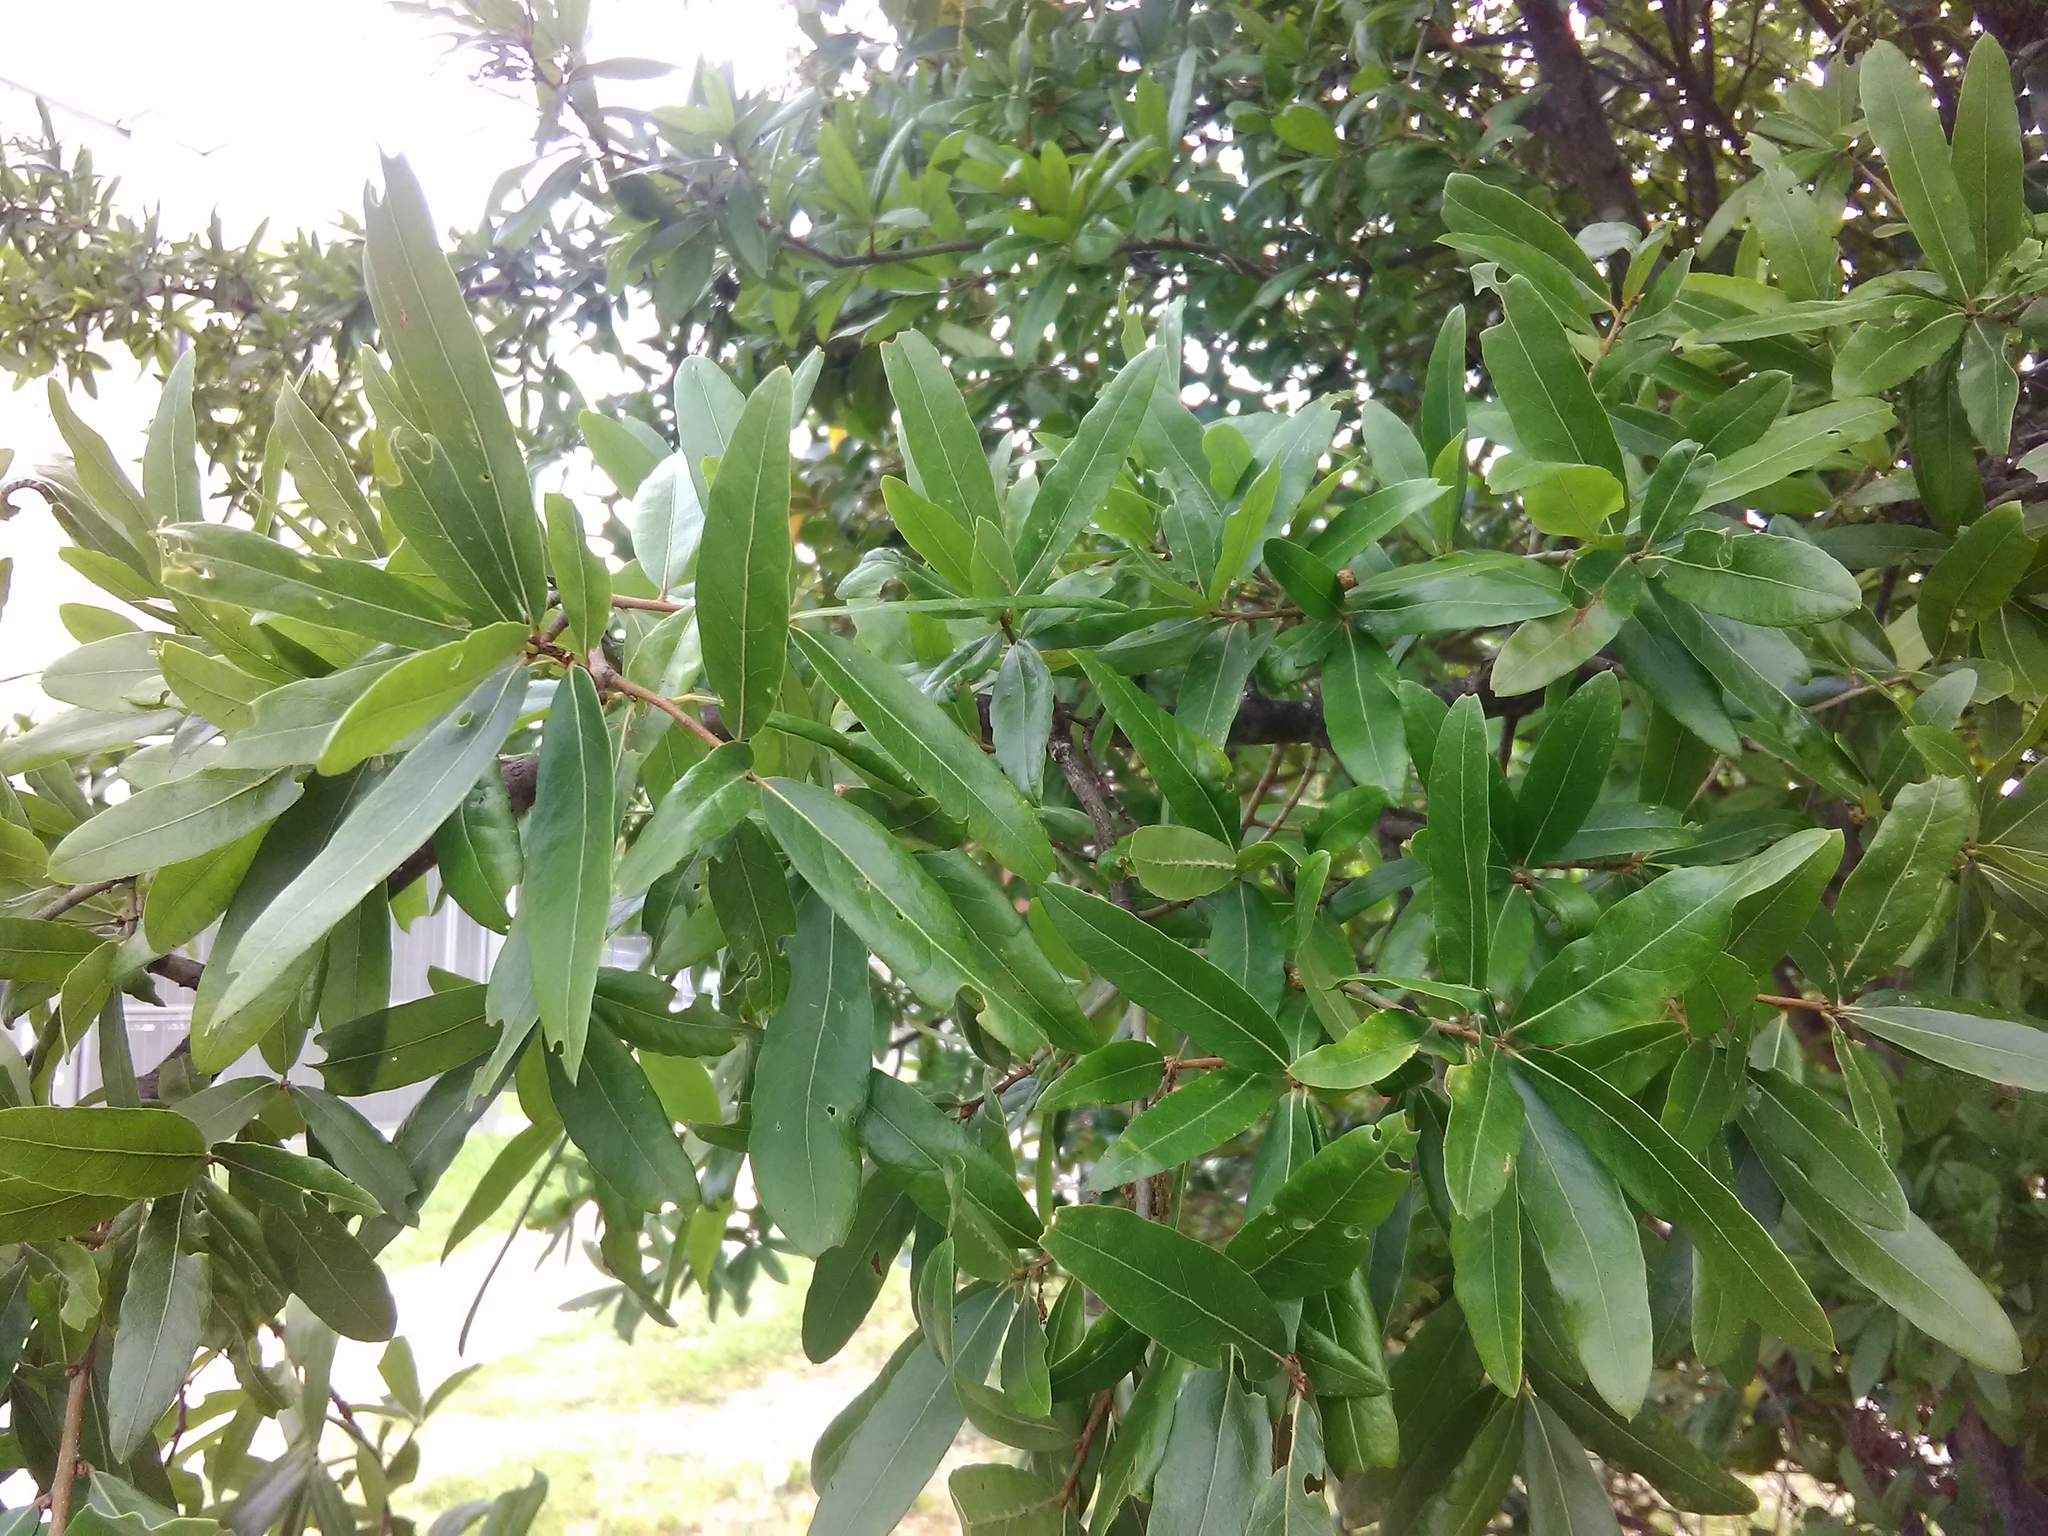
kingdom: Plantae
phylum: Tracheophyta
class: Magnoliopsida
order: Fagales
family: Fagaceae
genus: Quercus
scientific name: Quercus phellos
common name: Willow oak
